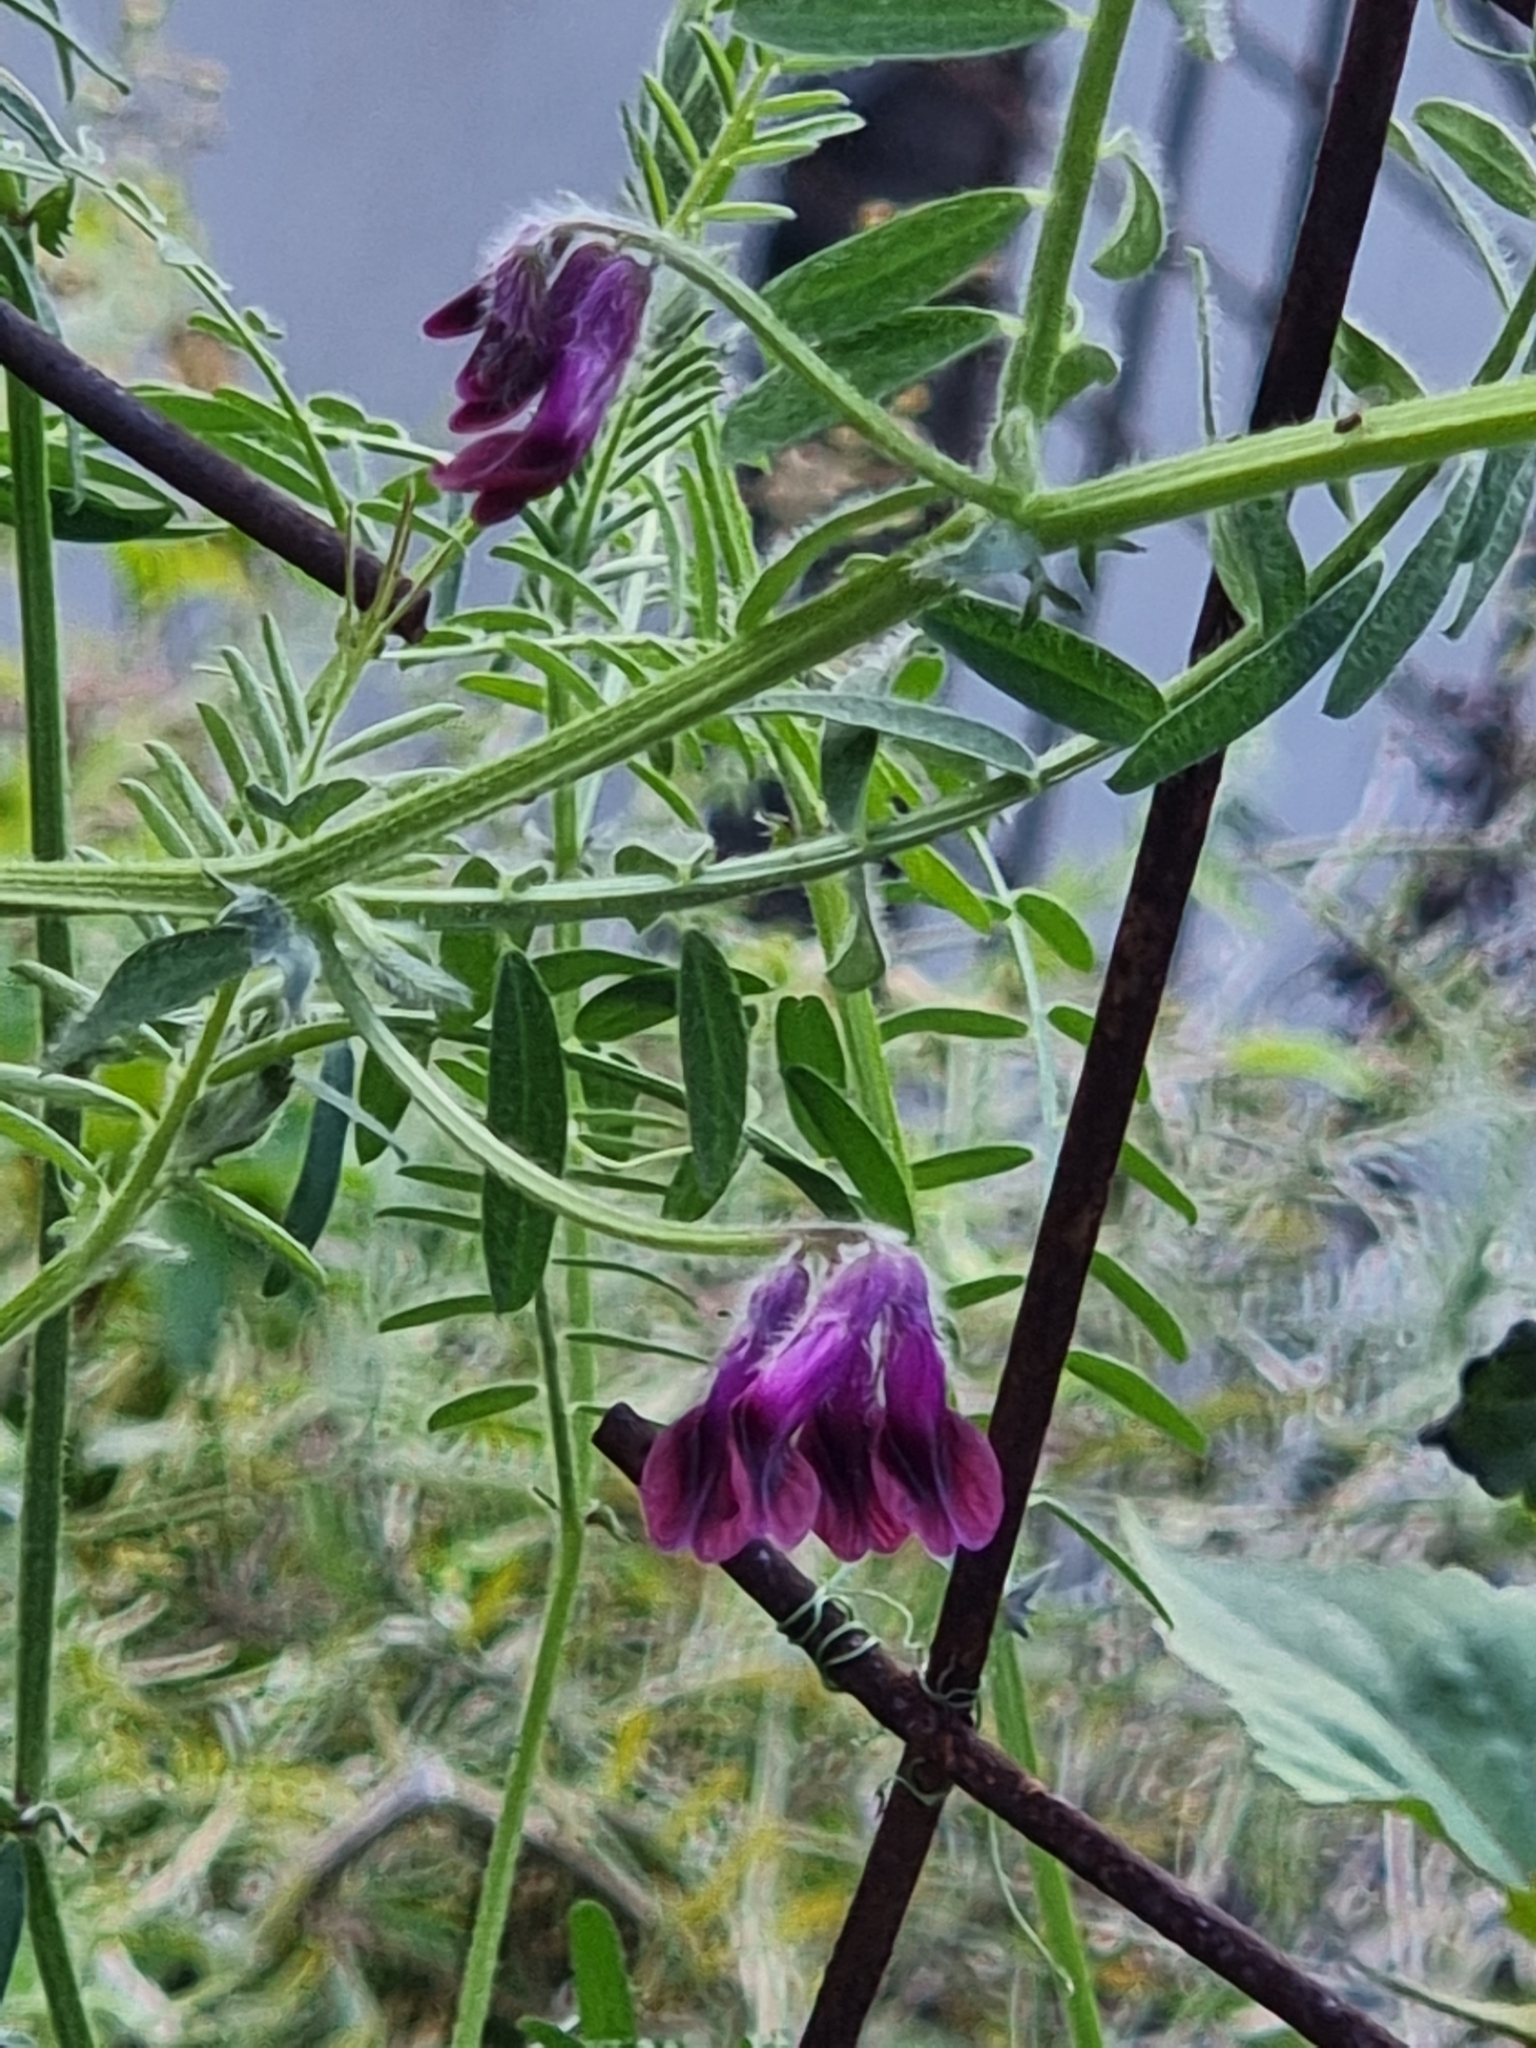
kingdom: Plantae
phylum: Tracheophyta
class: Magnoliopsida
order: Fabales
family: Fabaceae
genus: Vicia
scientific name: Vicia benghalensis
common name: Purple vetch
